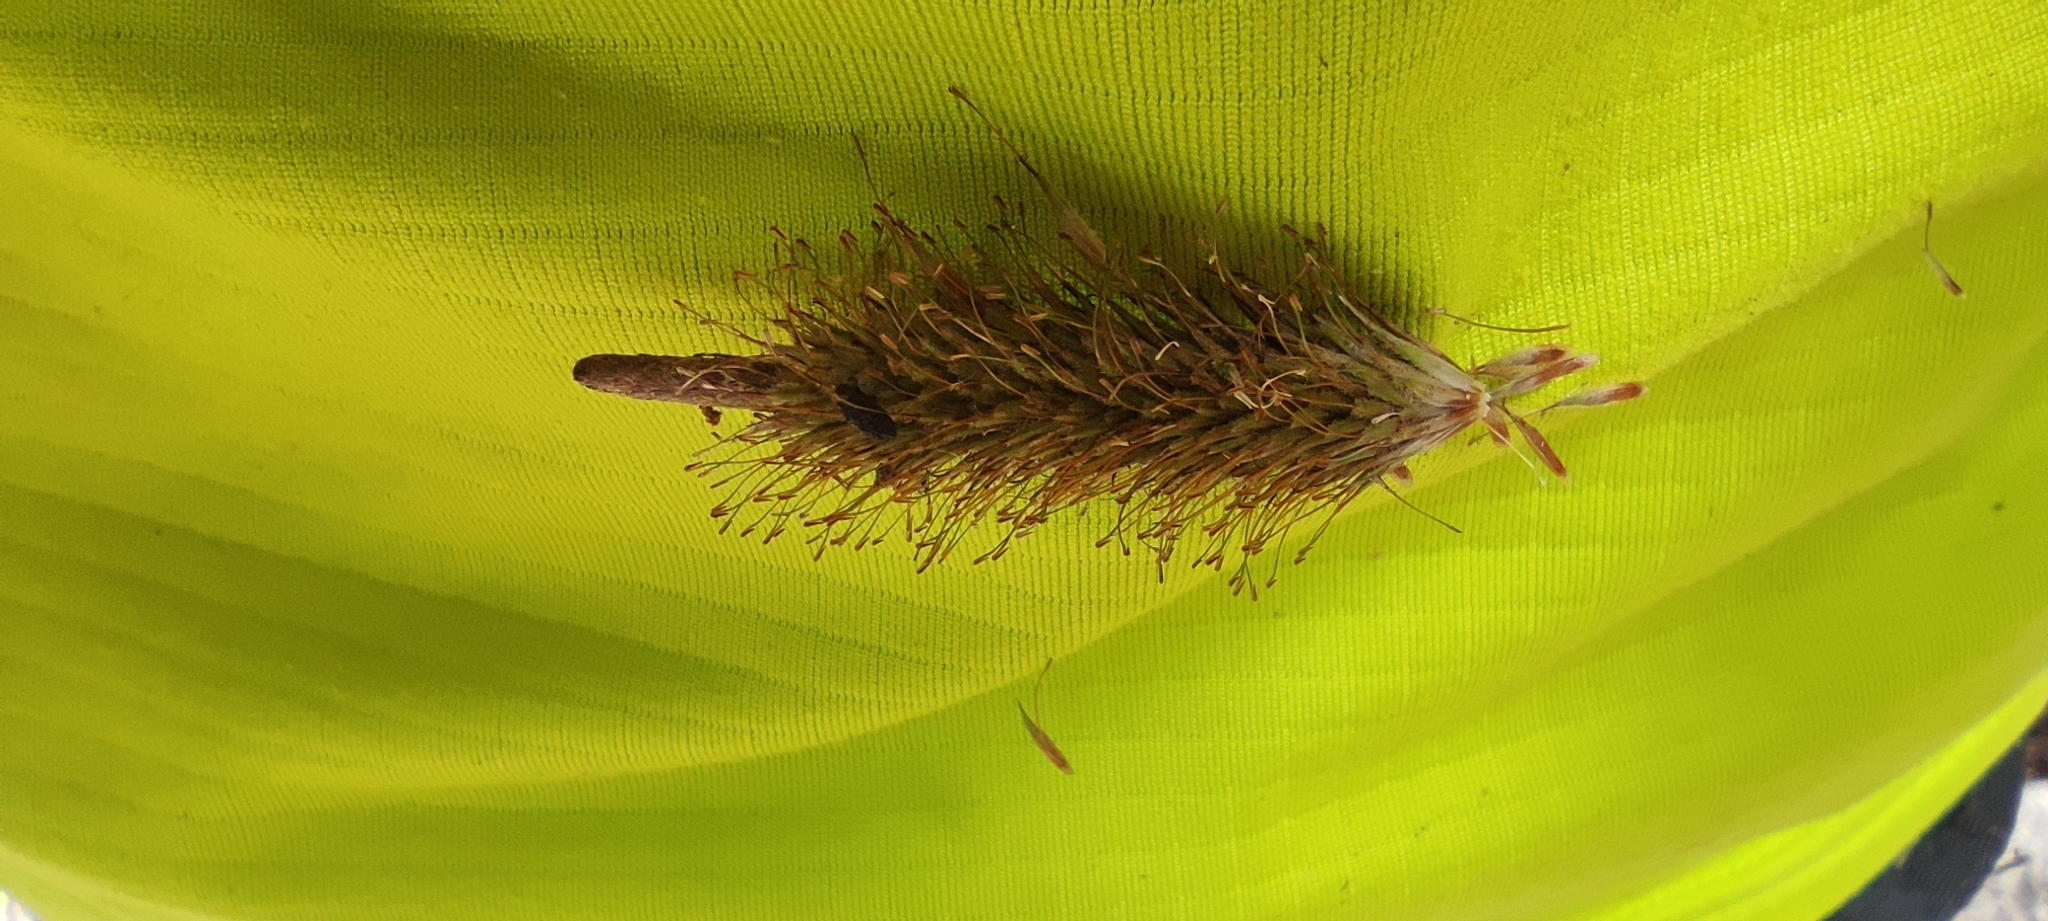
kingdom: Plantae
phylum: Tracheophyta
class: Liliopsida
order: Poales
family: Cyperaceae
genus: Carex
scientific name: Carex multifaria
